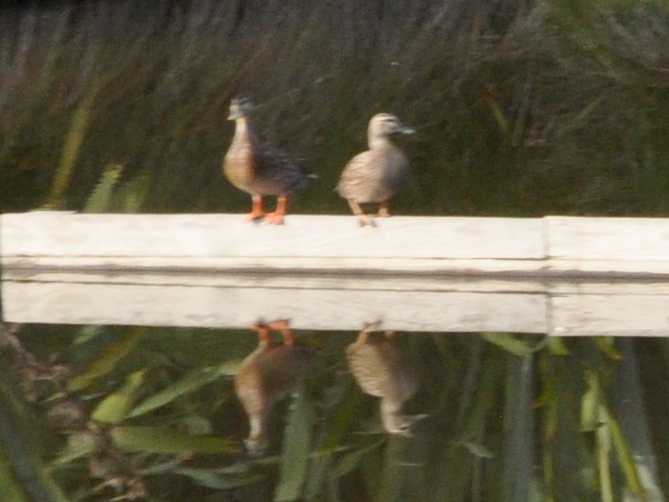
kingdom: Animalia
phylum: Chordata
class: Aves
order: Anseriformes
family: Anatidae
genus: Anas
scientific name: Anas
